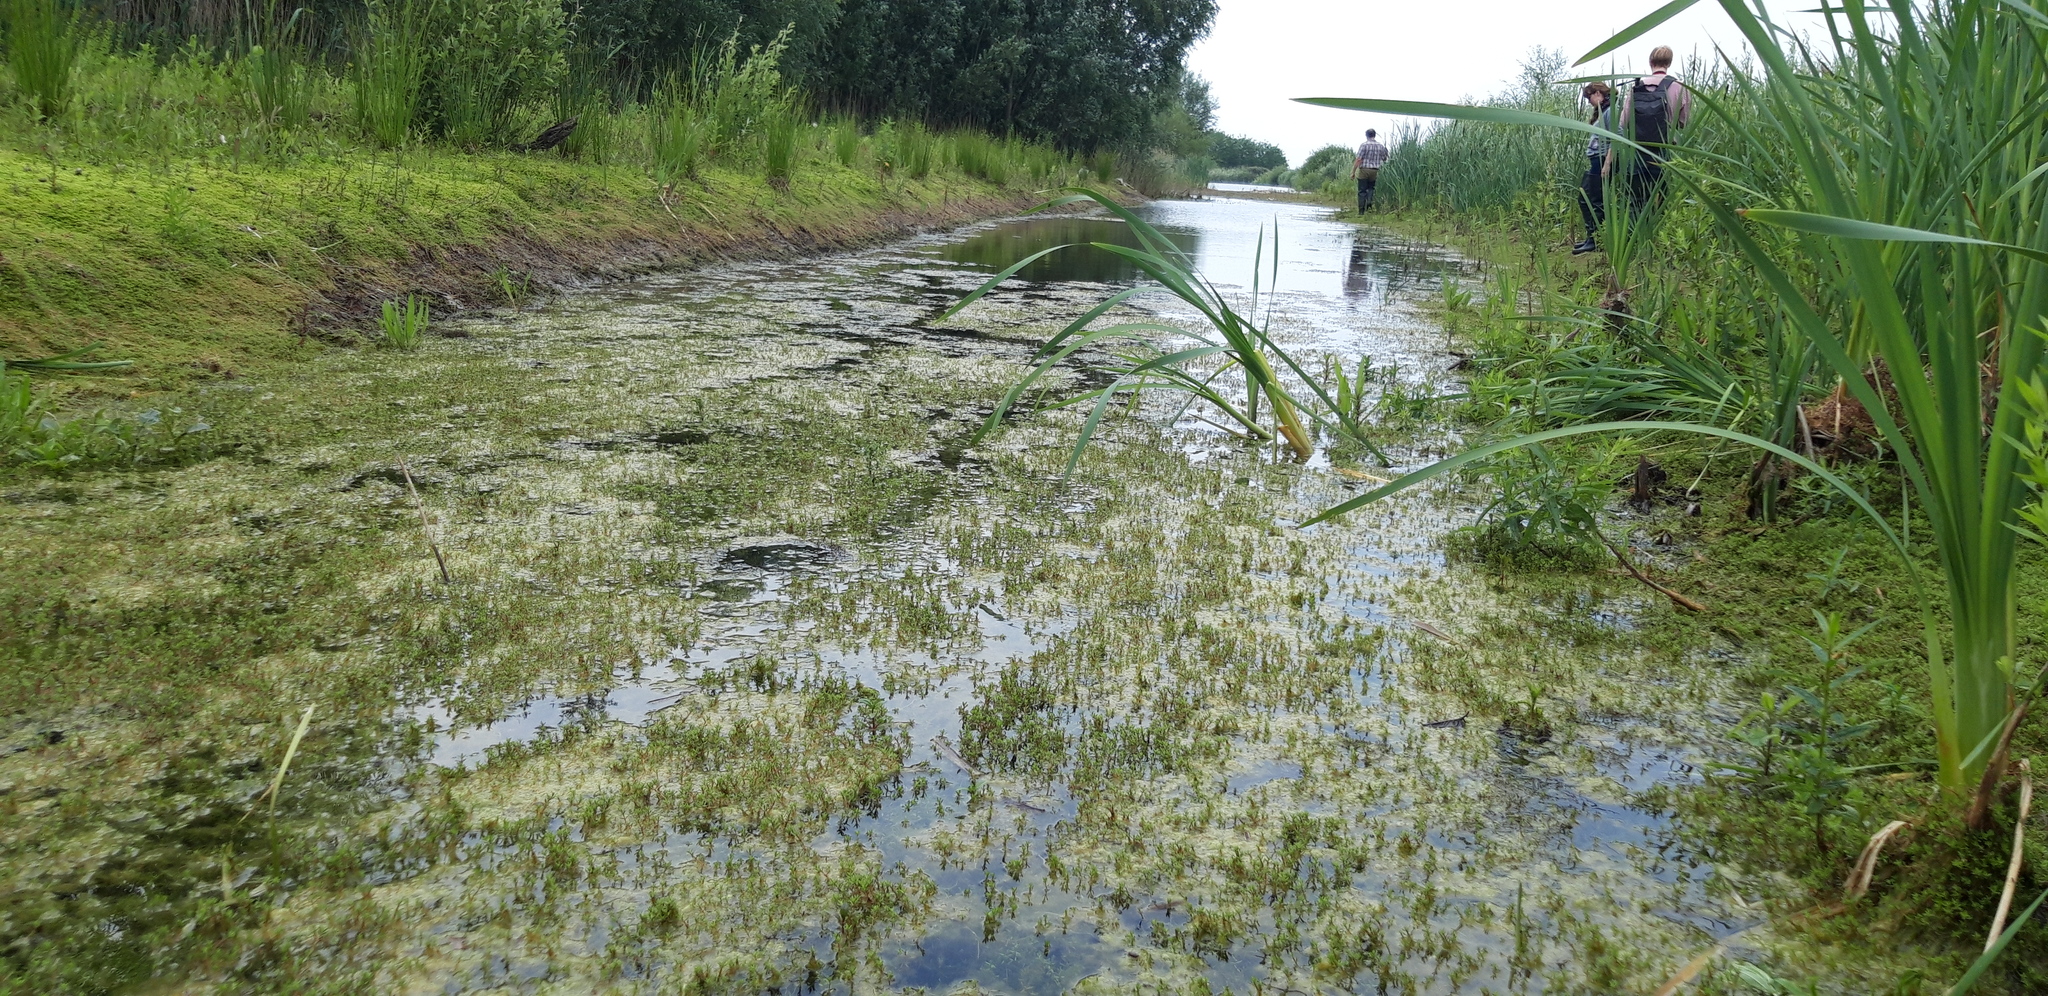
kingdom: Plantae
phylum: Tracheophyta
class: Magnoliopsida
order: Saxifragales
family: Crassulaceae
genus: Crassula
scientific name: Crassula helmsii
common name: New zealand pigmyweed
